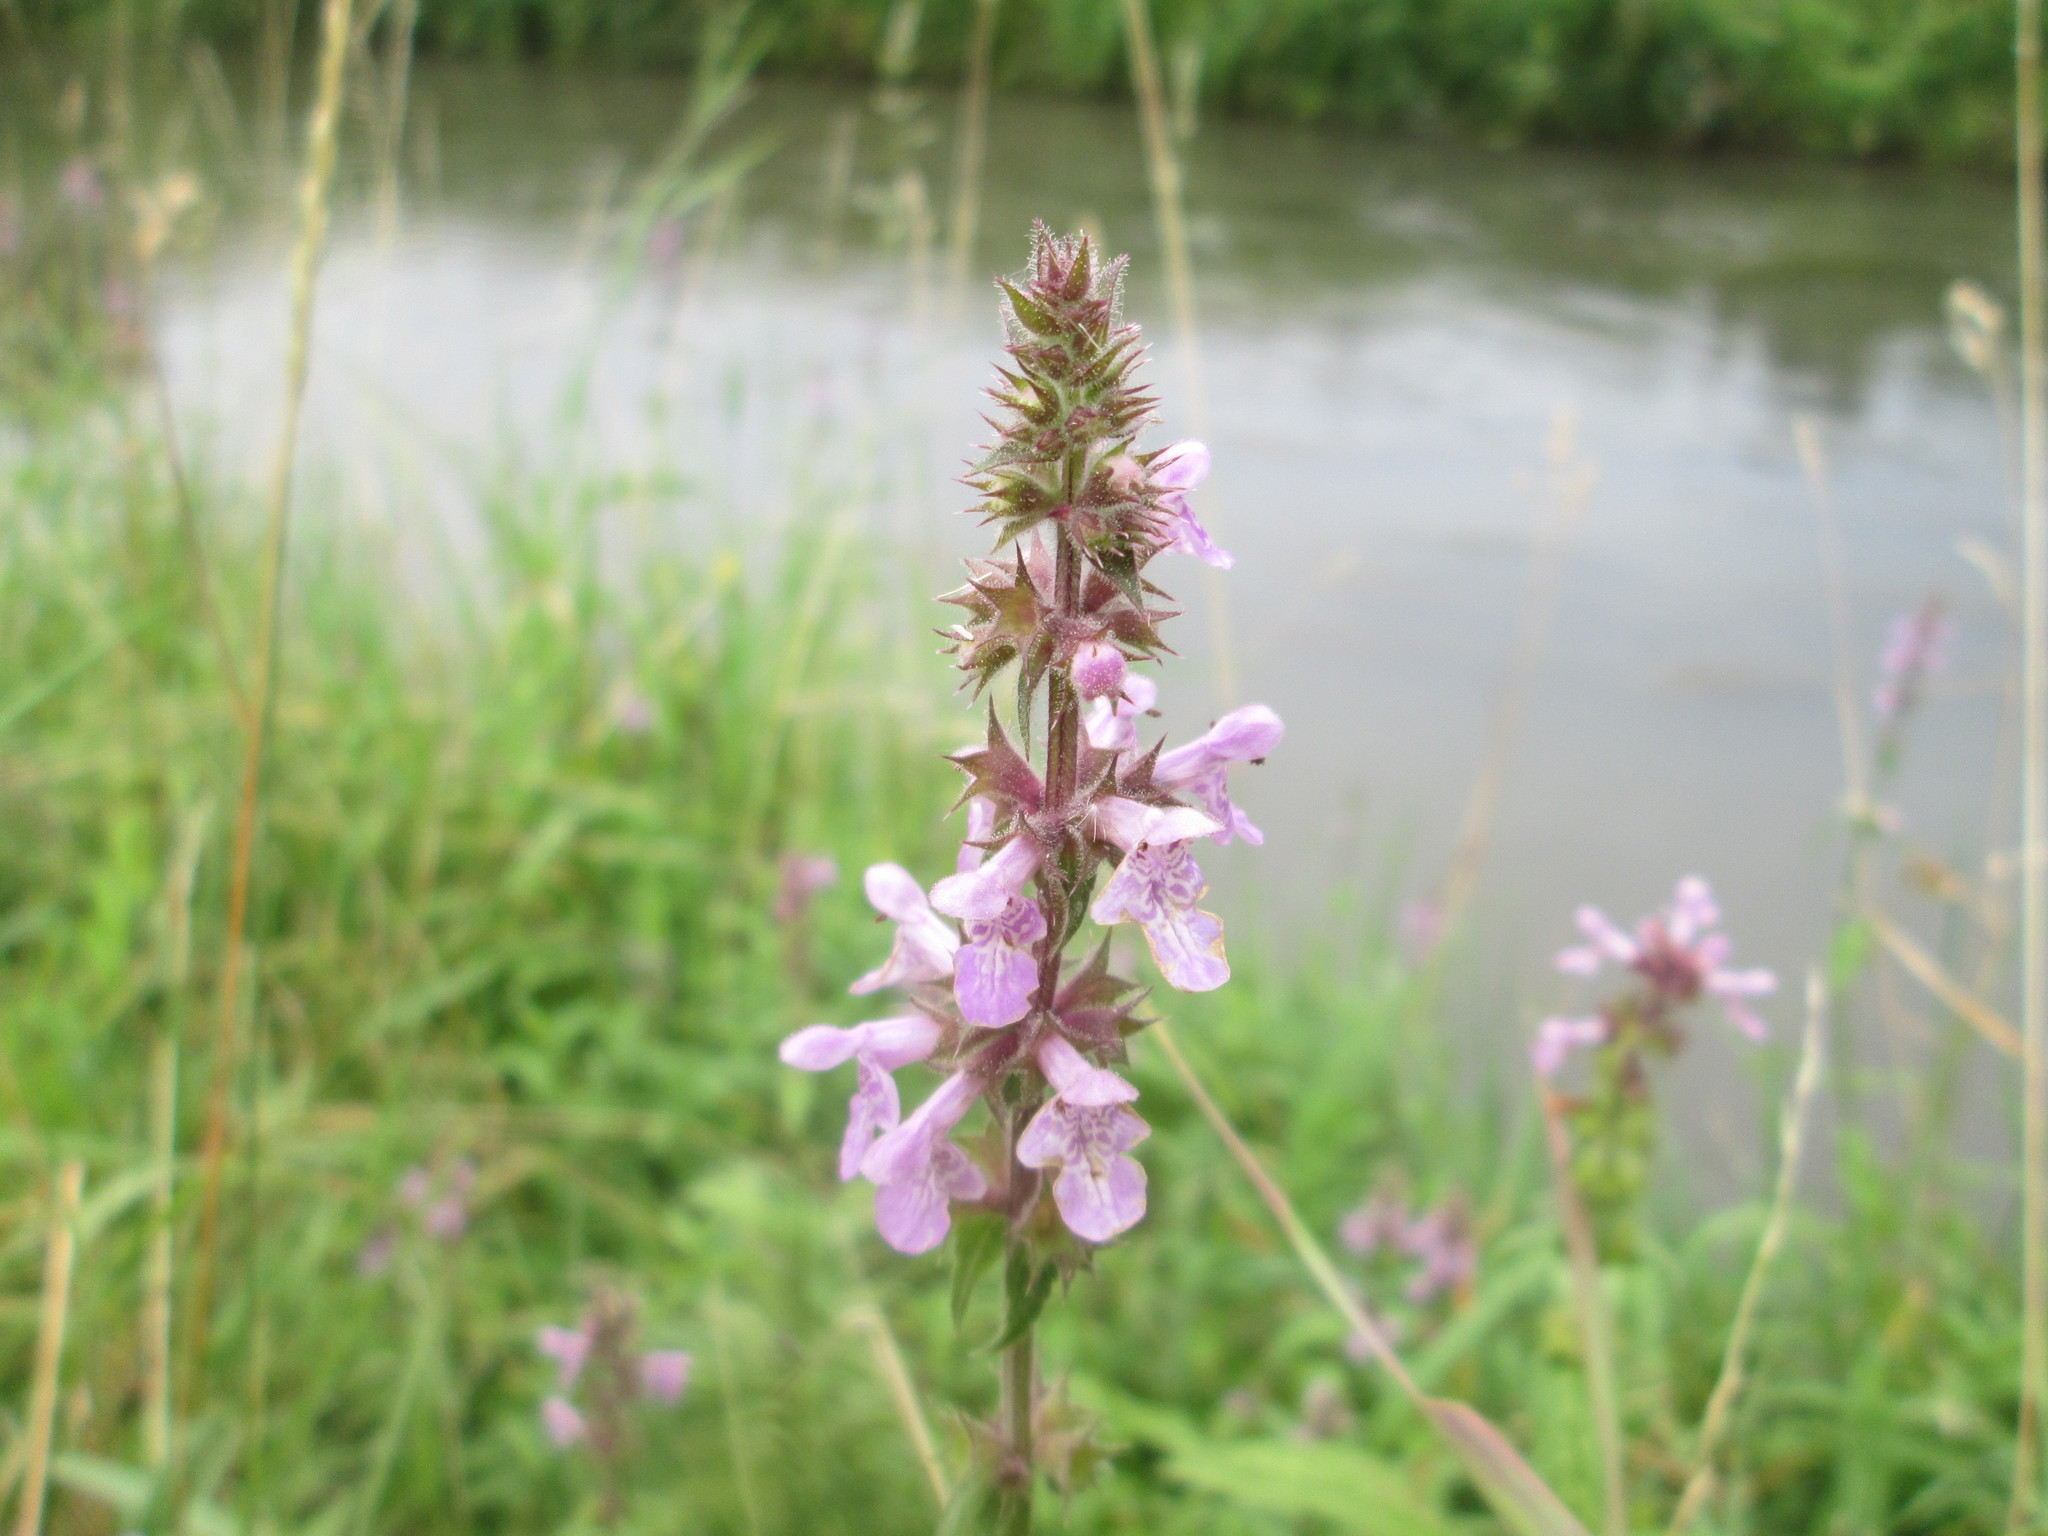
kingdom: Plantae
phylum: Tracheophyta
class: Magnoliopsida
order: Lamiales
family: Lamiaceae
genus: Stachys
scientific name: Stachys palustris
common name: Marsh woundwort
